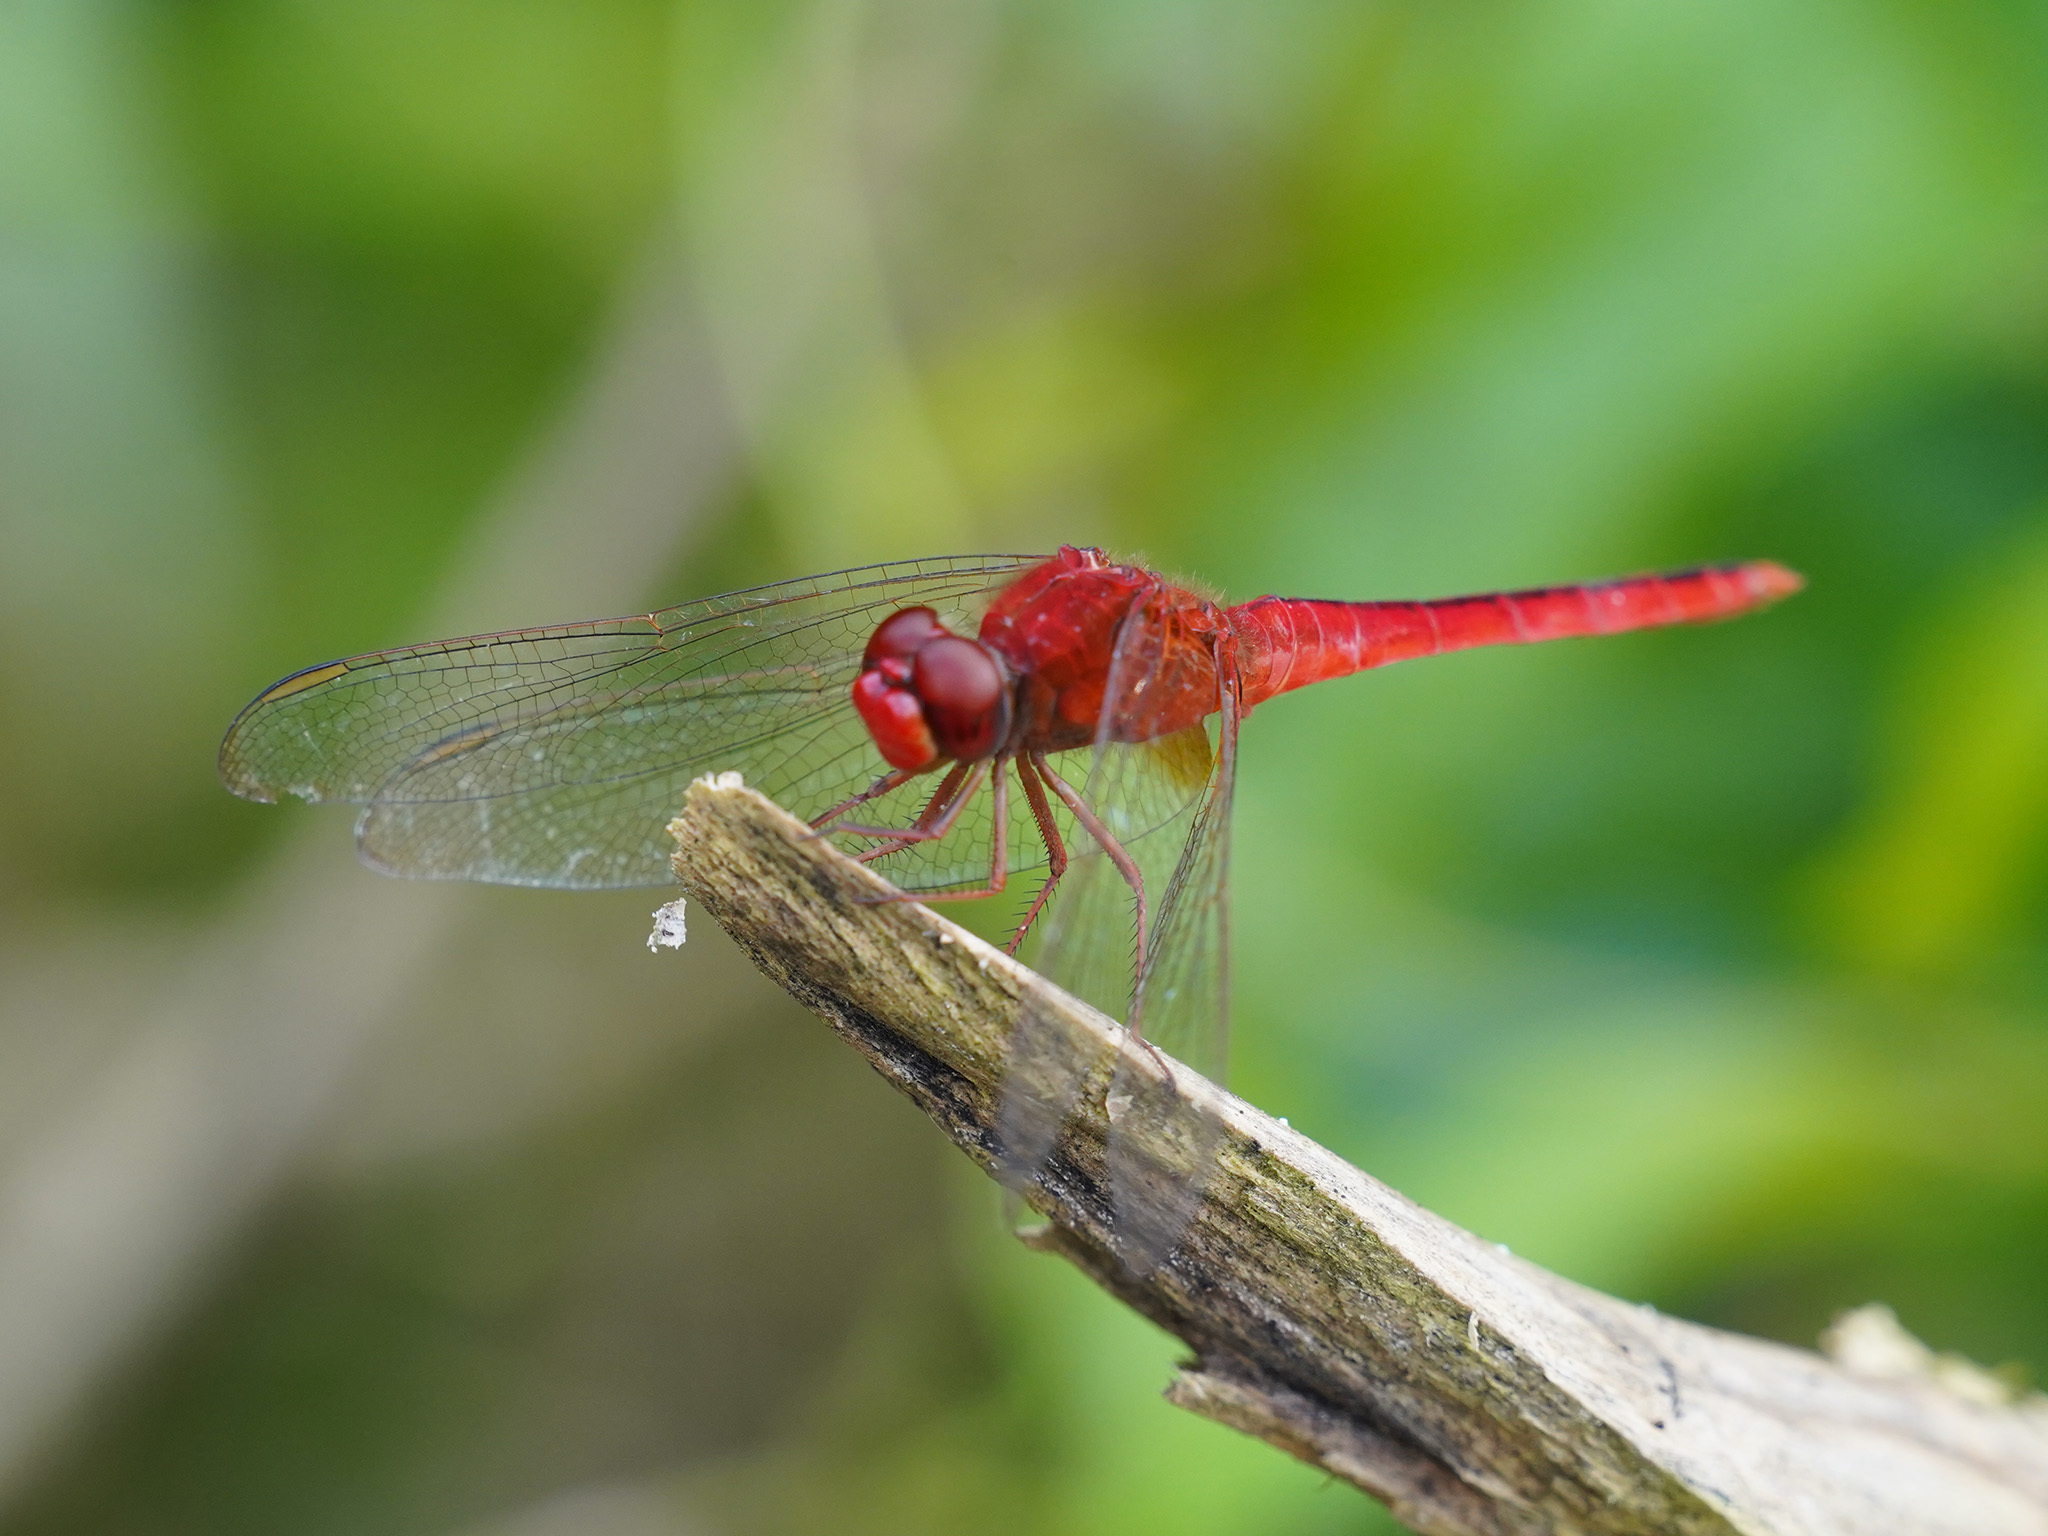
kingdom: Animalia
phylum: Arthropoda
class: Insecta
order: Odonata
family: Libellulidae
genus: Crocothemis
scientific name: Crocothemis servilia
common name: Scarlet skimmer
